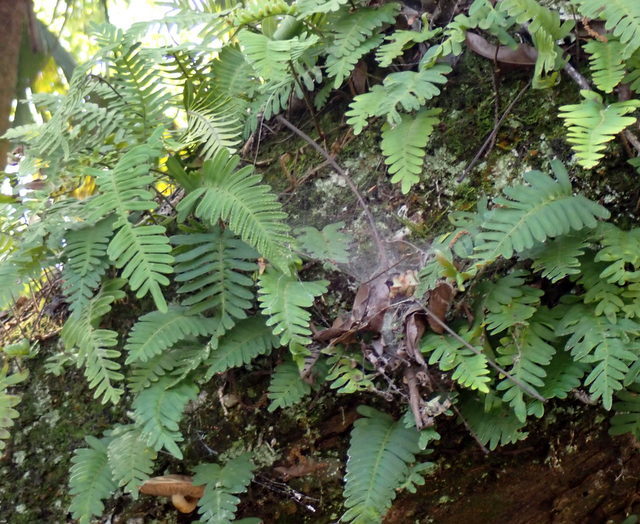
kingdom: Plantae
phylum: Tracheophyta
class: Polypodiopsida
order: Polypodiales
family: Polypodiaceae
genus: Pleopeltis
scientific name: Pleopeltis michauxiana
